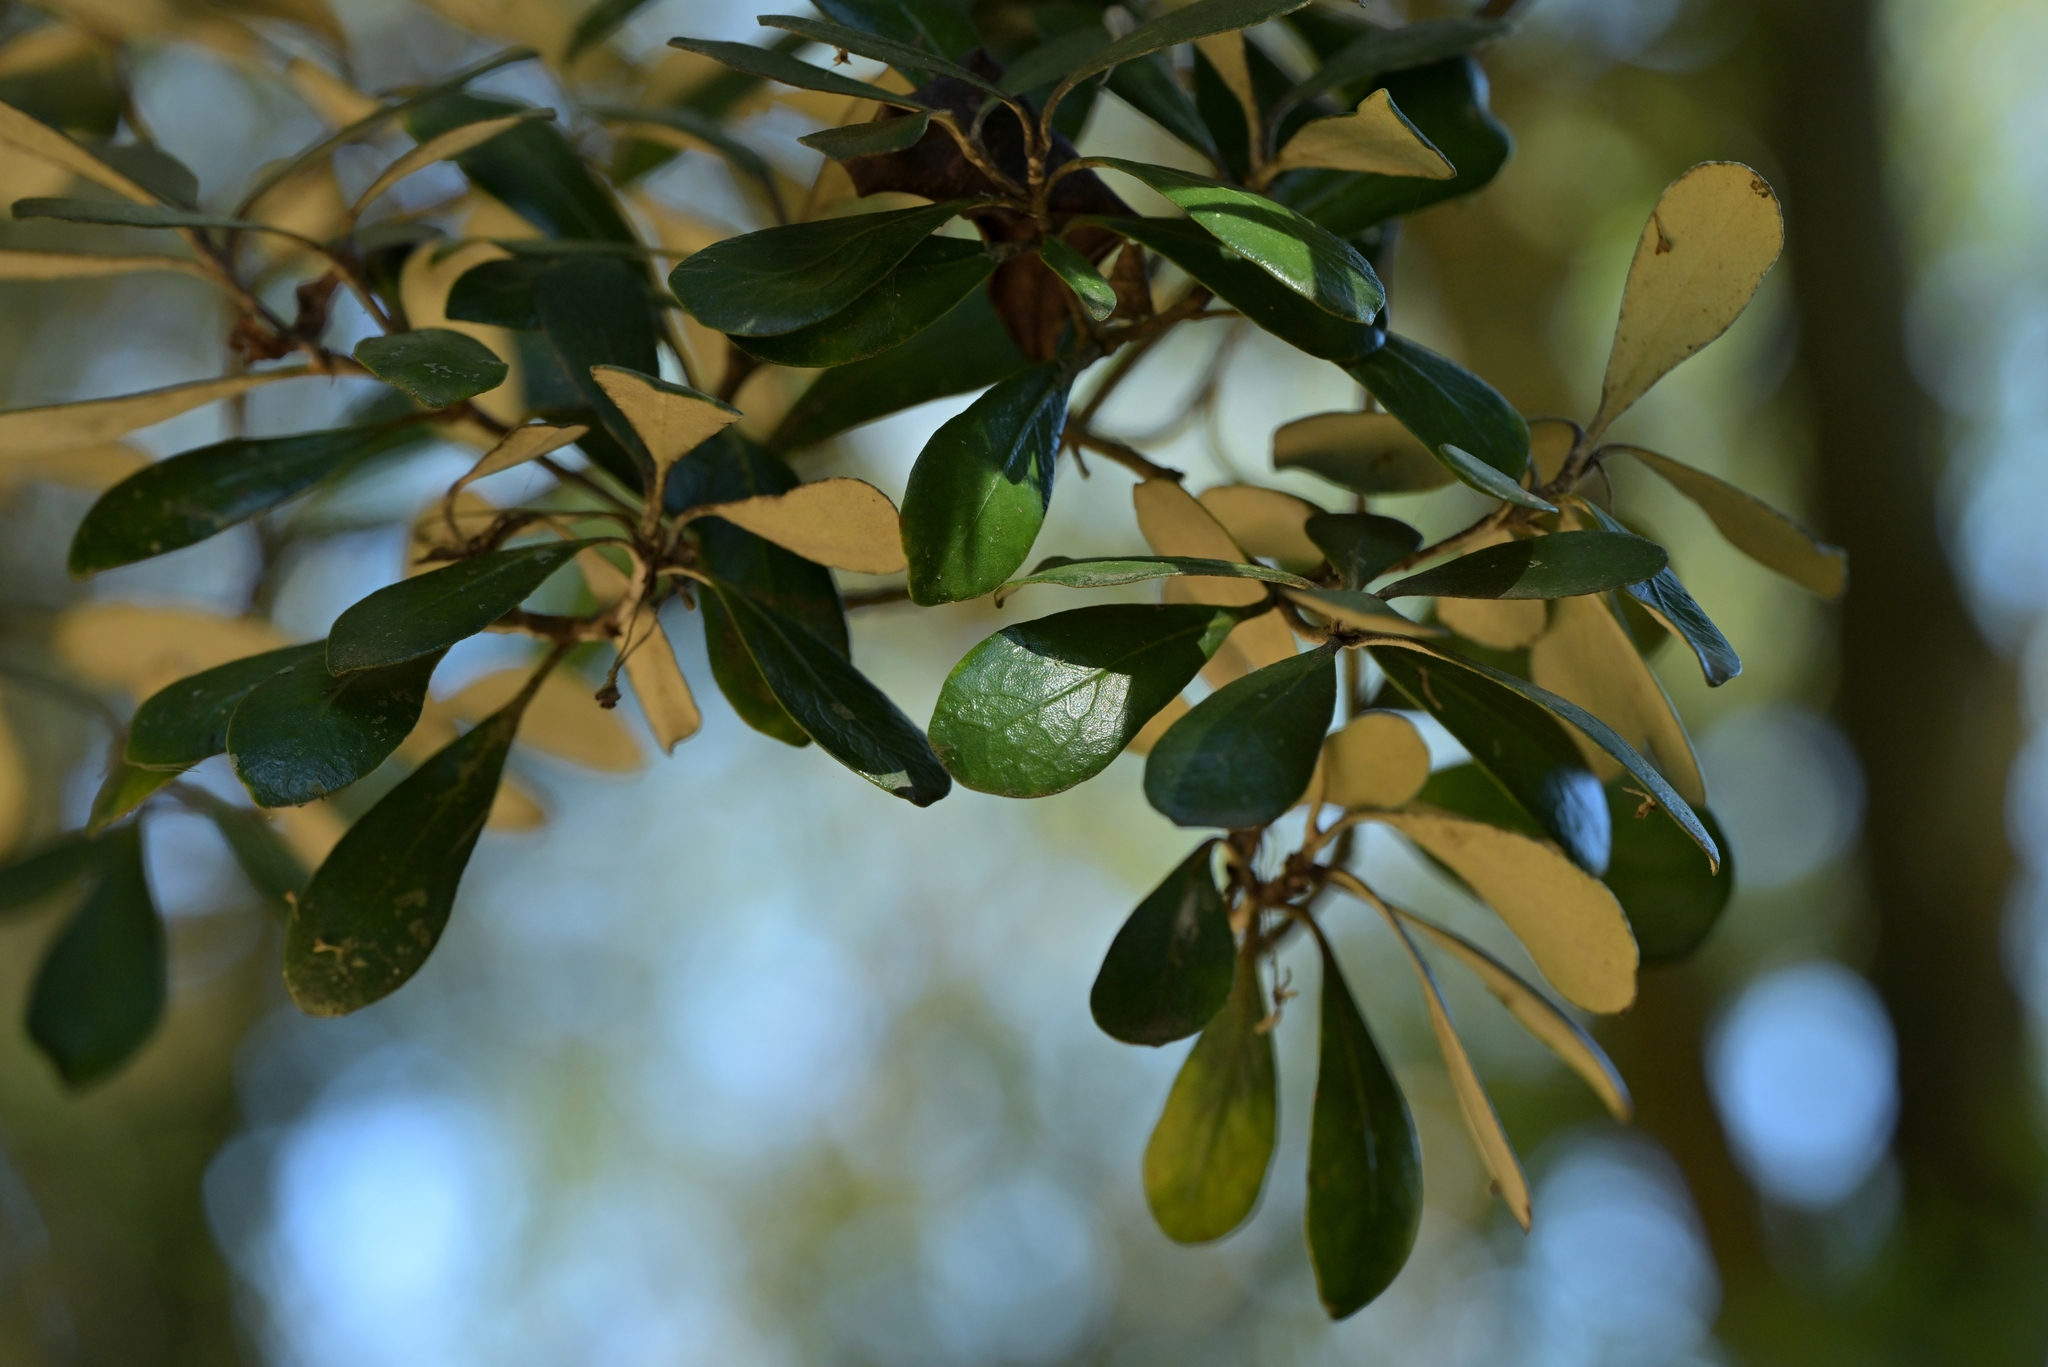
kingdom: Plantae
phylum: Tracheophyta
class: Magnoliopsida
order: Apiales
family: Pittosporaceae
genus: Pittosporum
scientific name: Pittosporum crassifolium
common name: Karo
